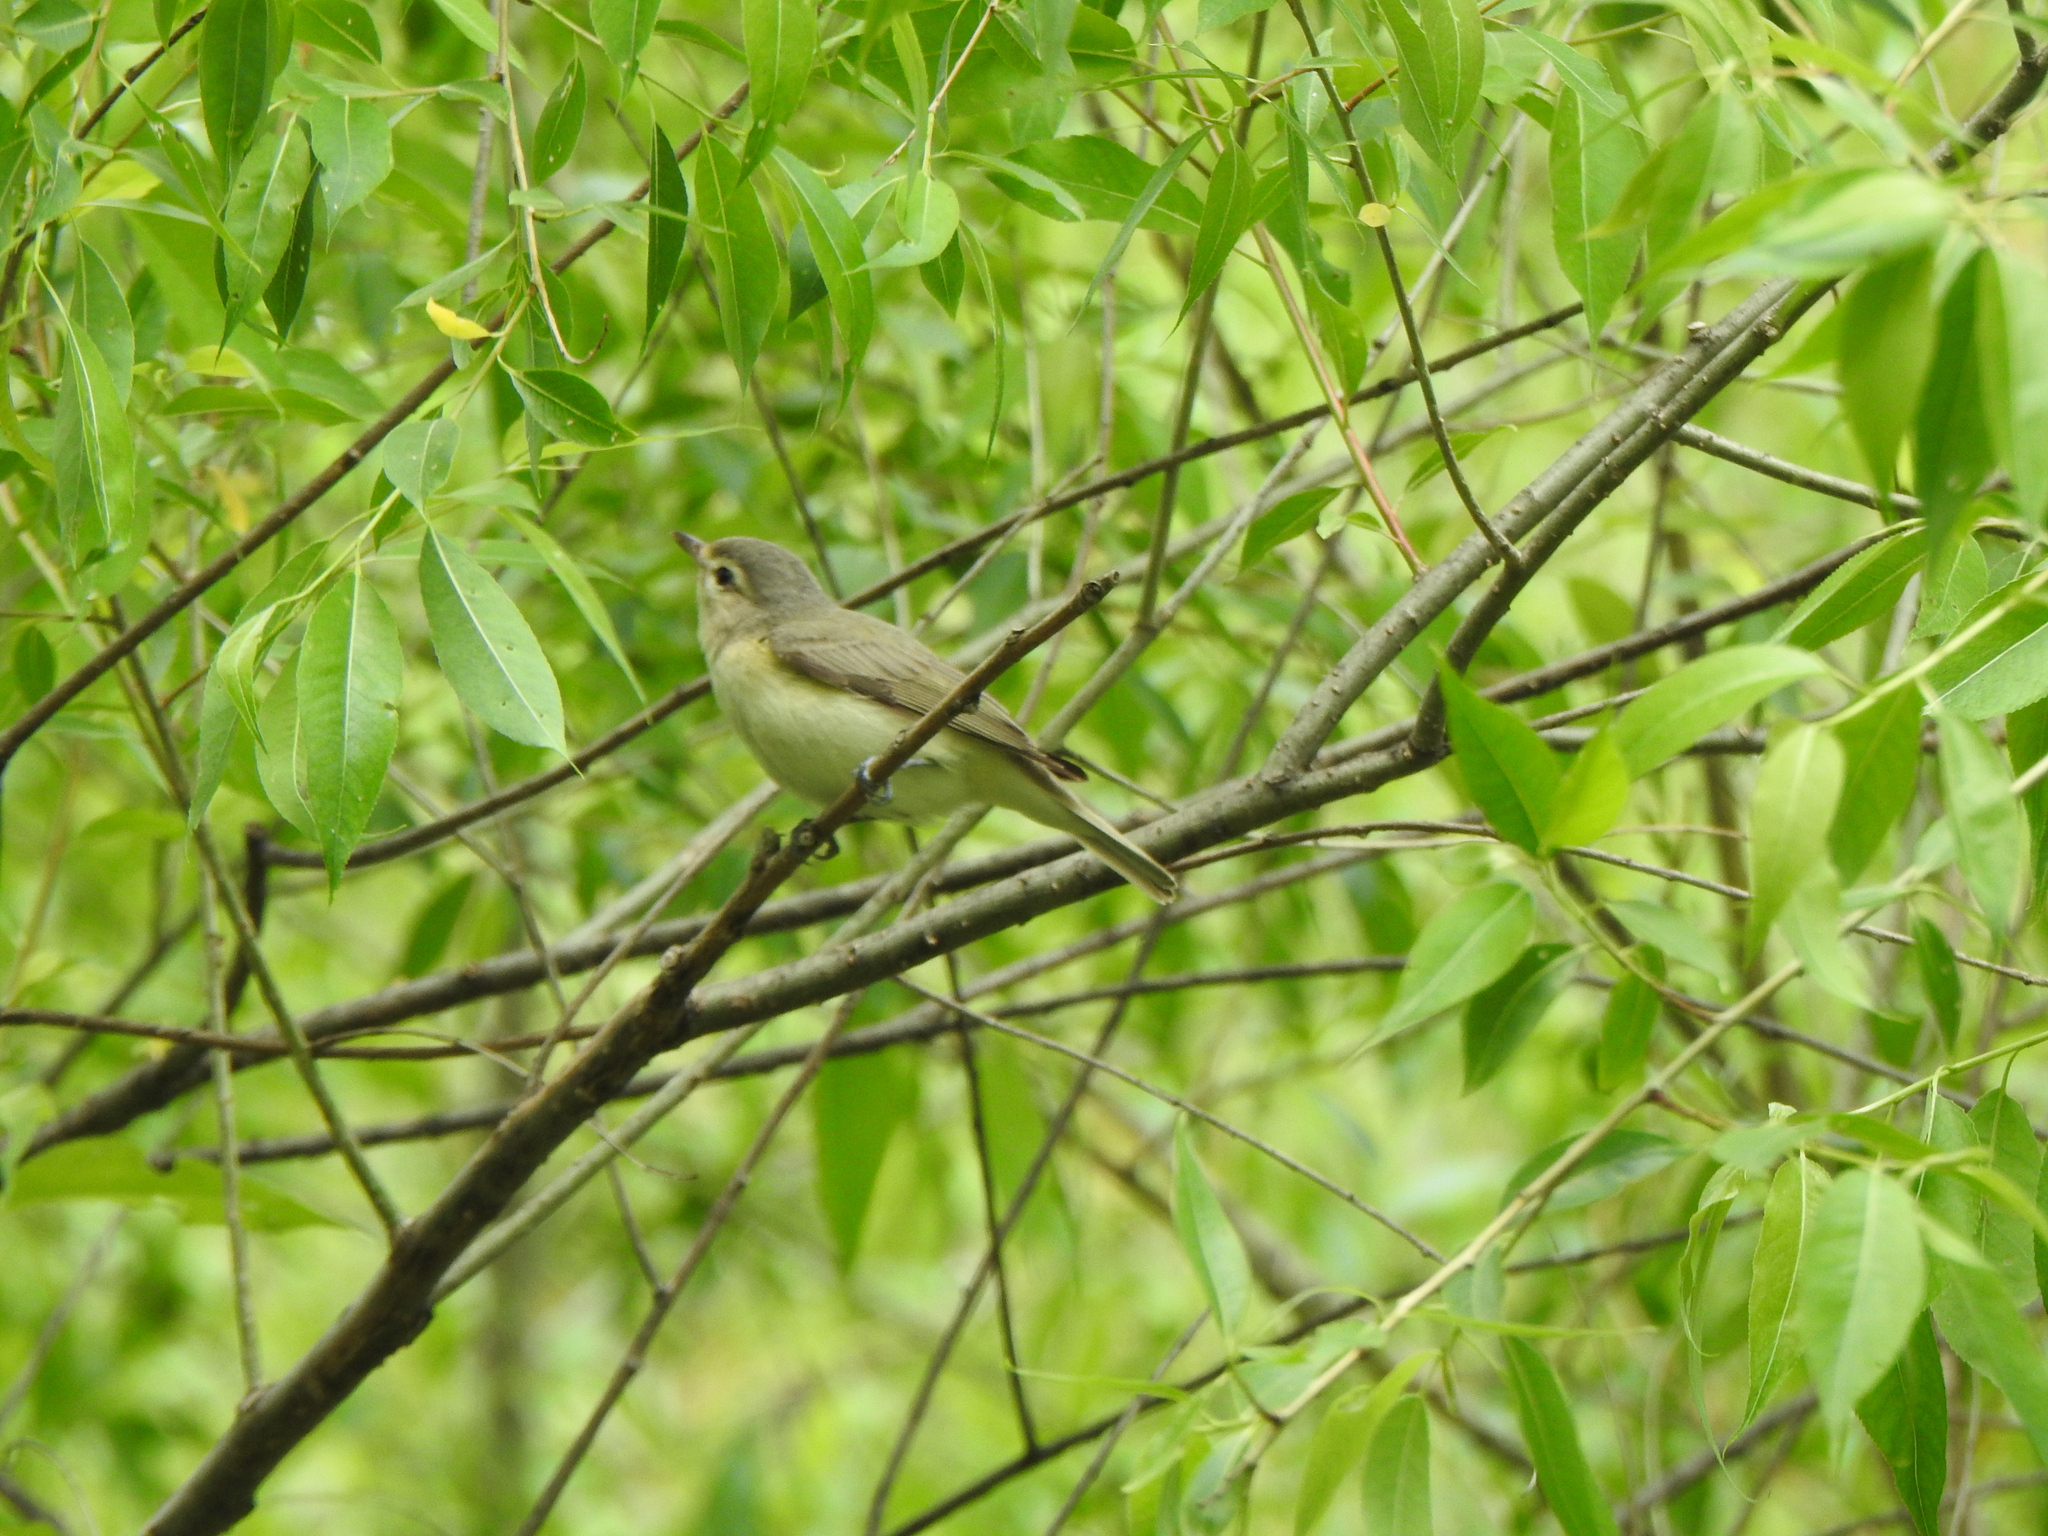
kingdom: Animalia
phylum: Chordata
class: Aves
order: Passeriformes
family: Vireonidae
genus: Vireo
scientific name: Vireo gilvus
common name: Warbling vireo
